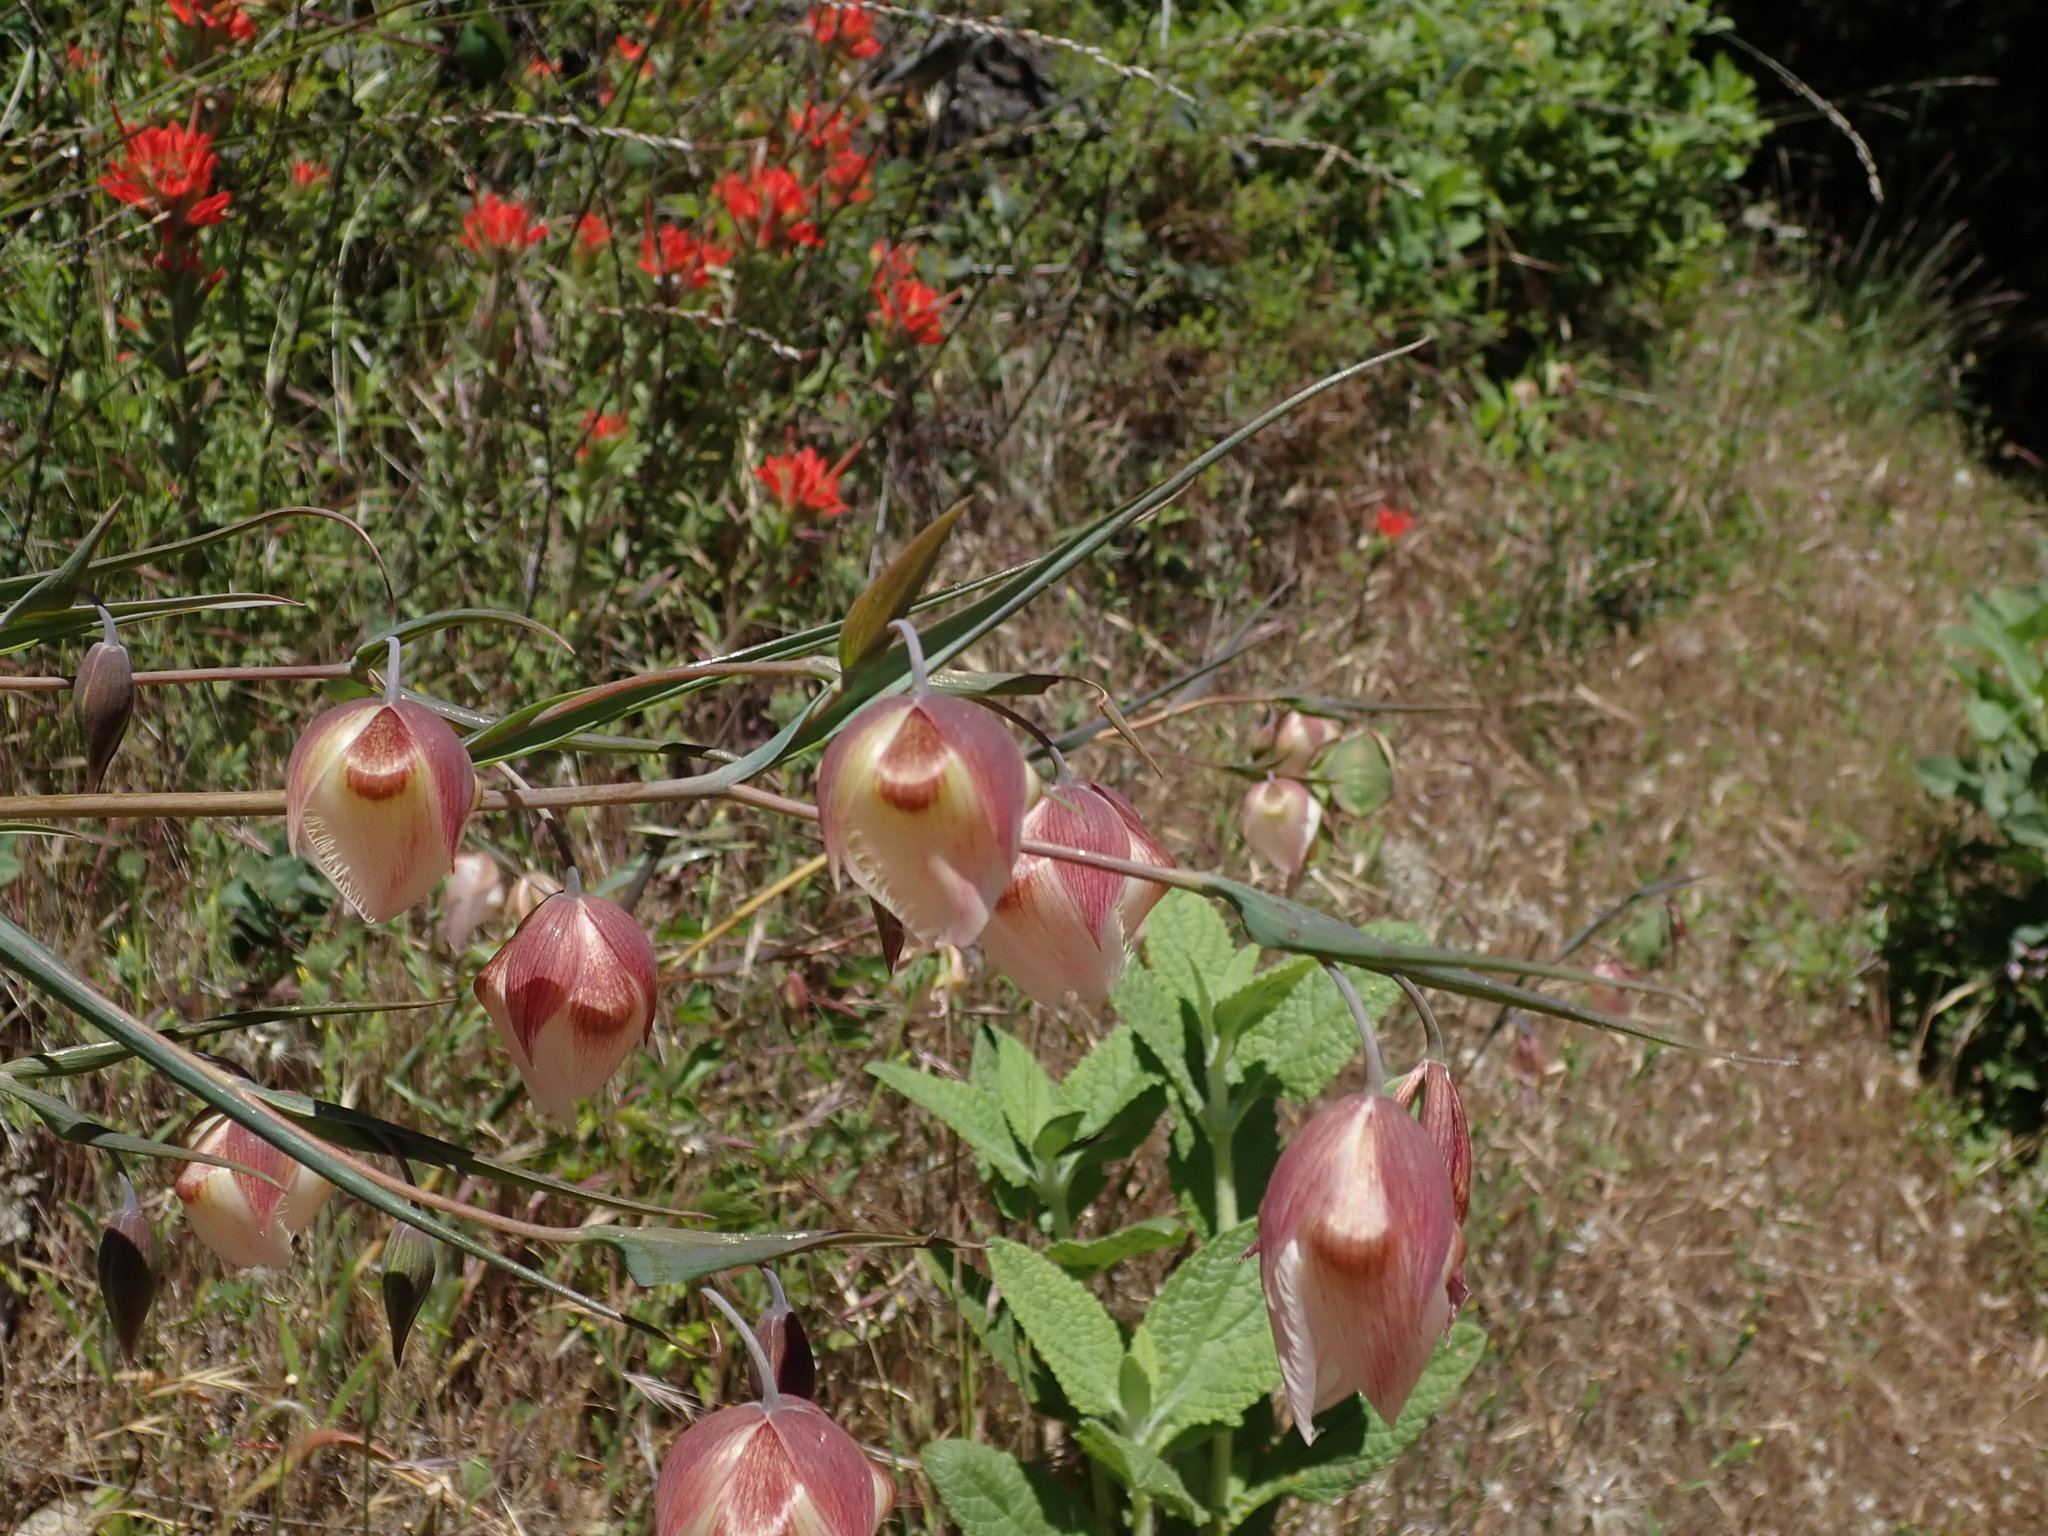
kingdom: Plantae
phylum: Tracheophyta
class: Liliopsida
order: Liliales
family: Liliaceae
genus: Calochortus
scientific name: Calochortus albus
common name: Fairy-lantern
